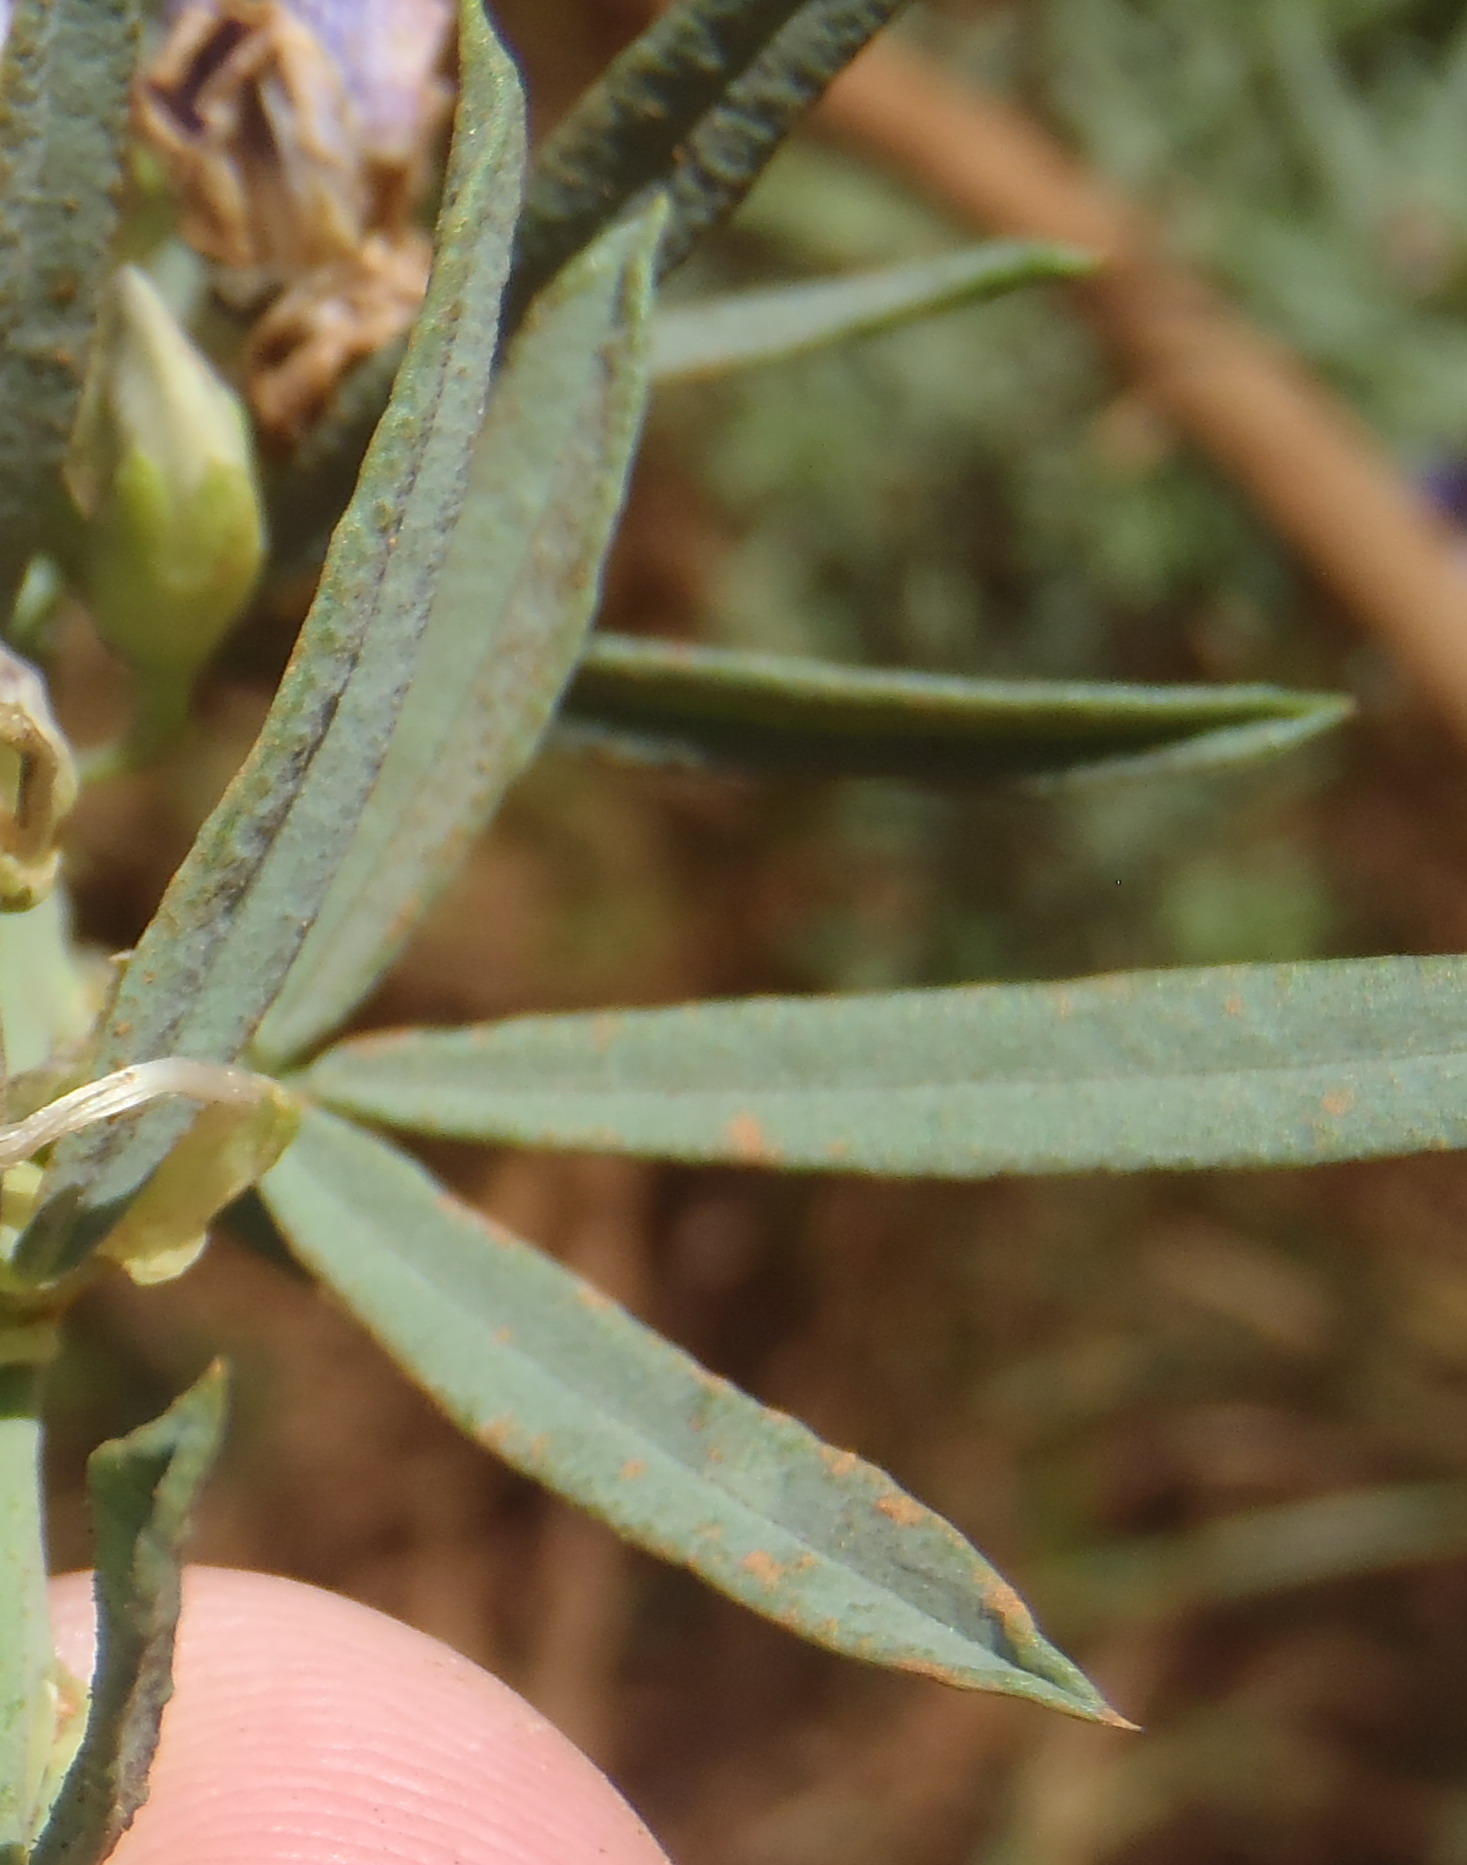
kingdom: Plantae
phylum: Tracheophyta
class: Magnoliopsida
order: Fabales
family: Fabaceae
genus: Psoralea
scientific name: Psoralea axillaris
